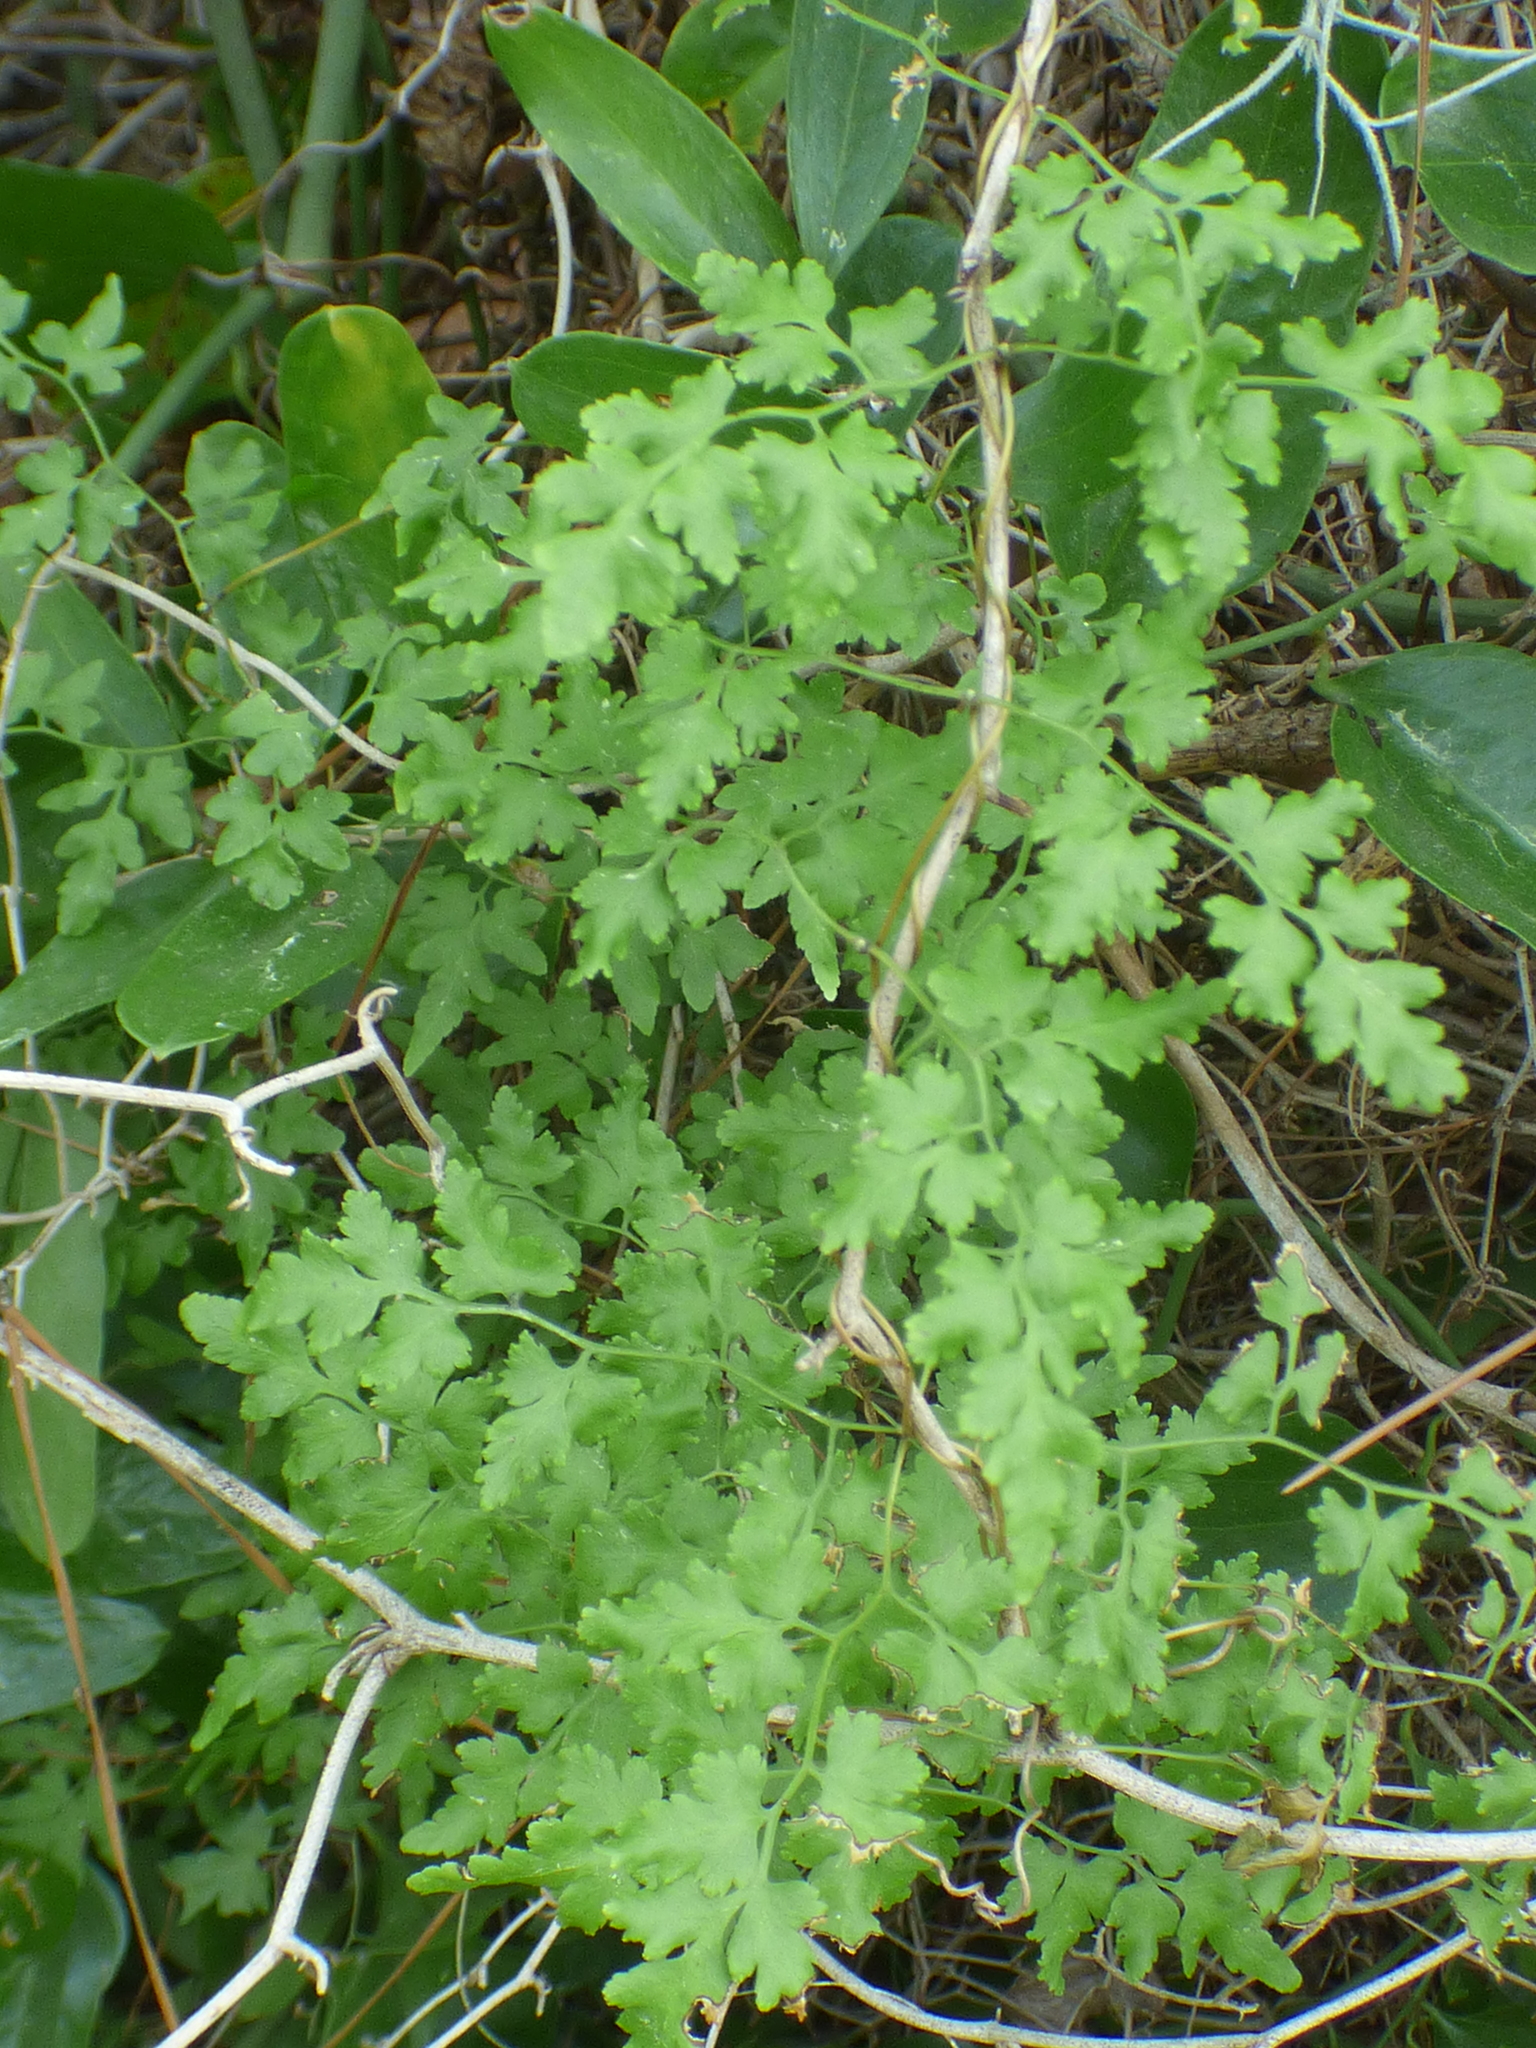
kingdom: Plantae
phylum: Tracheophyta
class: Polypodiopsida
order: Schizaeales
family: Lygodiaceae
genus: Lygodium
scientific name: Lygodium japonicum
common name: Japanese climbing fern
